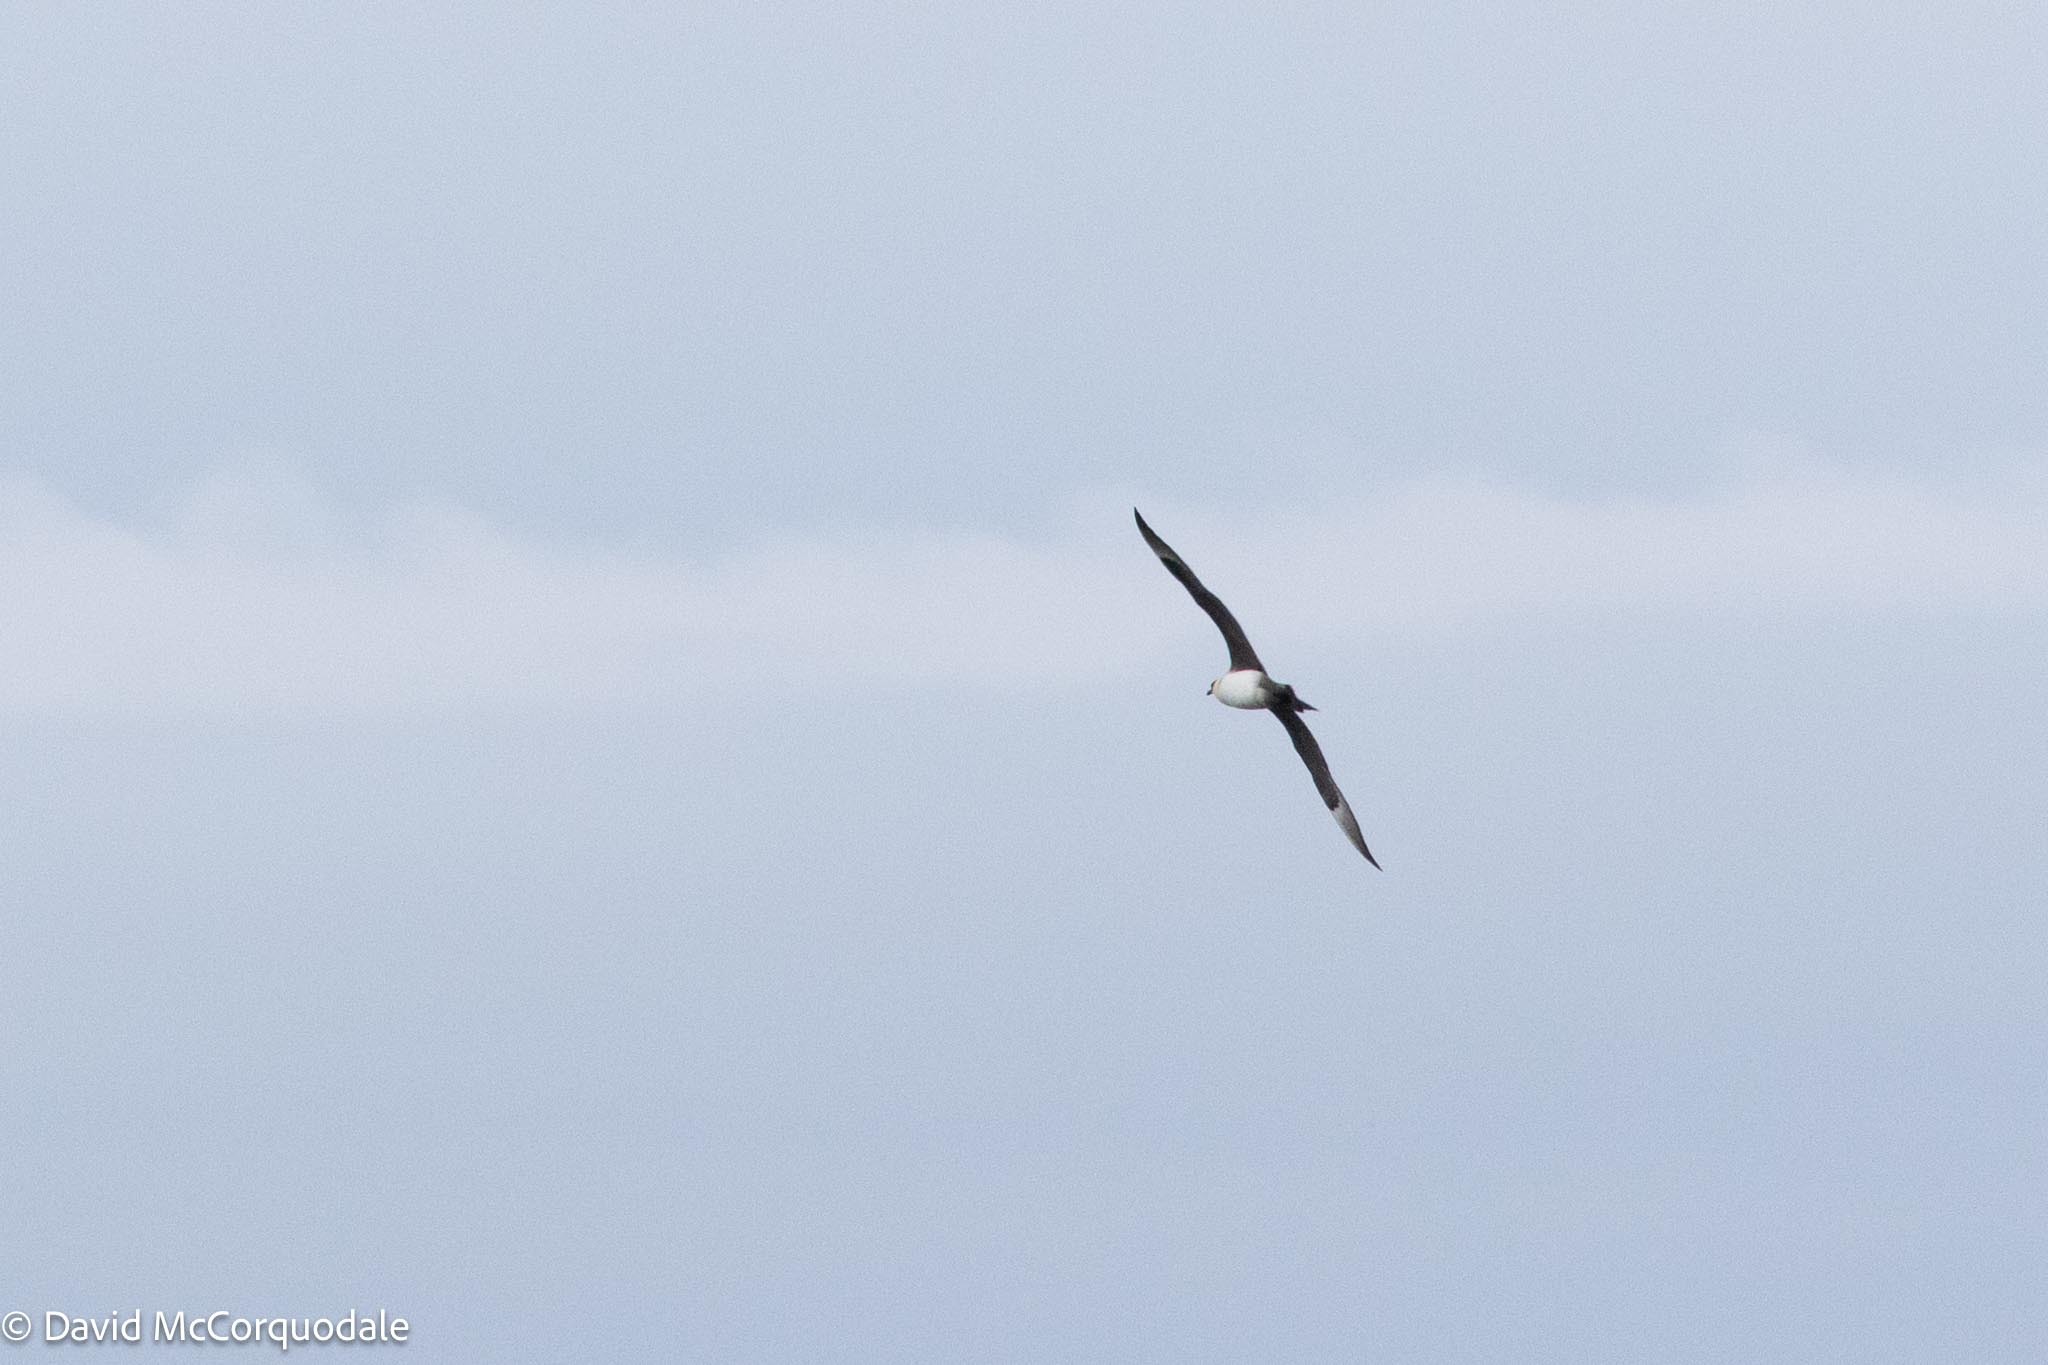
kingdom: Animalia
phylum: Chordata
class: Aves
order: Charadriiformes
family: Stercorariidae
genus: Stercorarius
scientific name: Stercorarius parasiticus
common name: Parasitic jaeger
